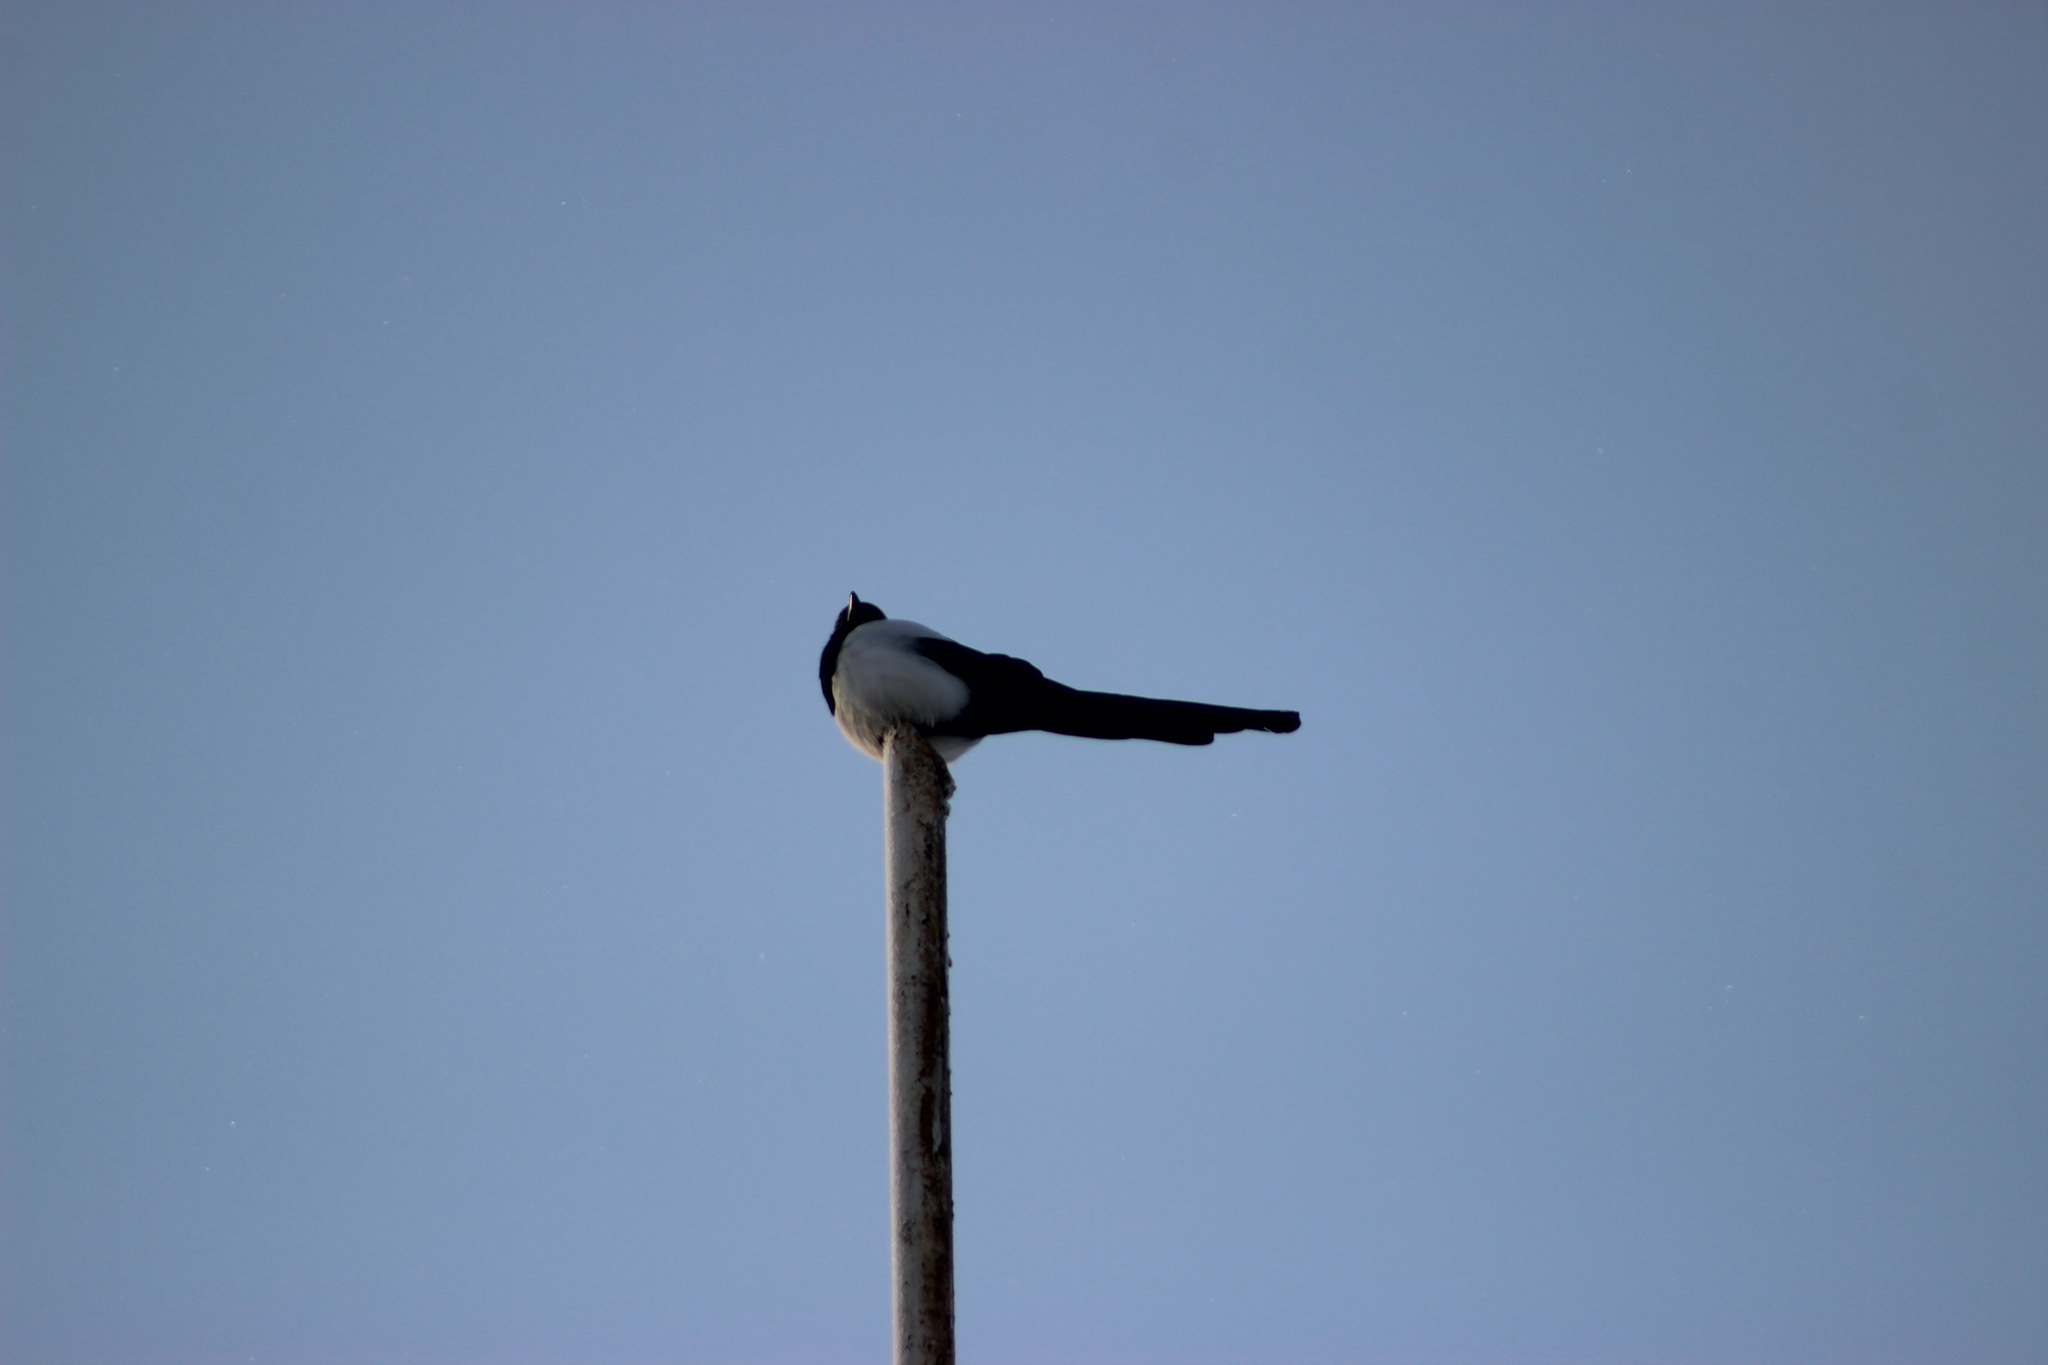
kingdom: Animalia
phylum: Chordata
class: Aves
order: Passeriformes
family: Corvidae
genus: Pica
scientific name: Pica pica
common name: Eurasian magpie
